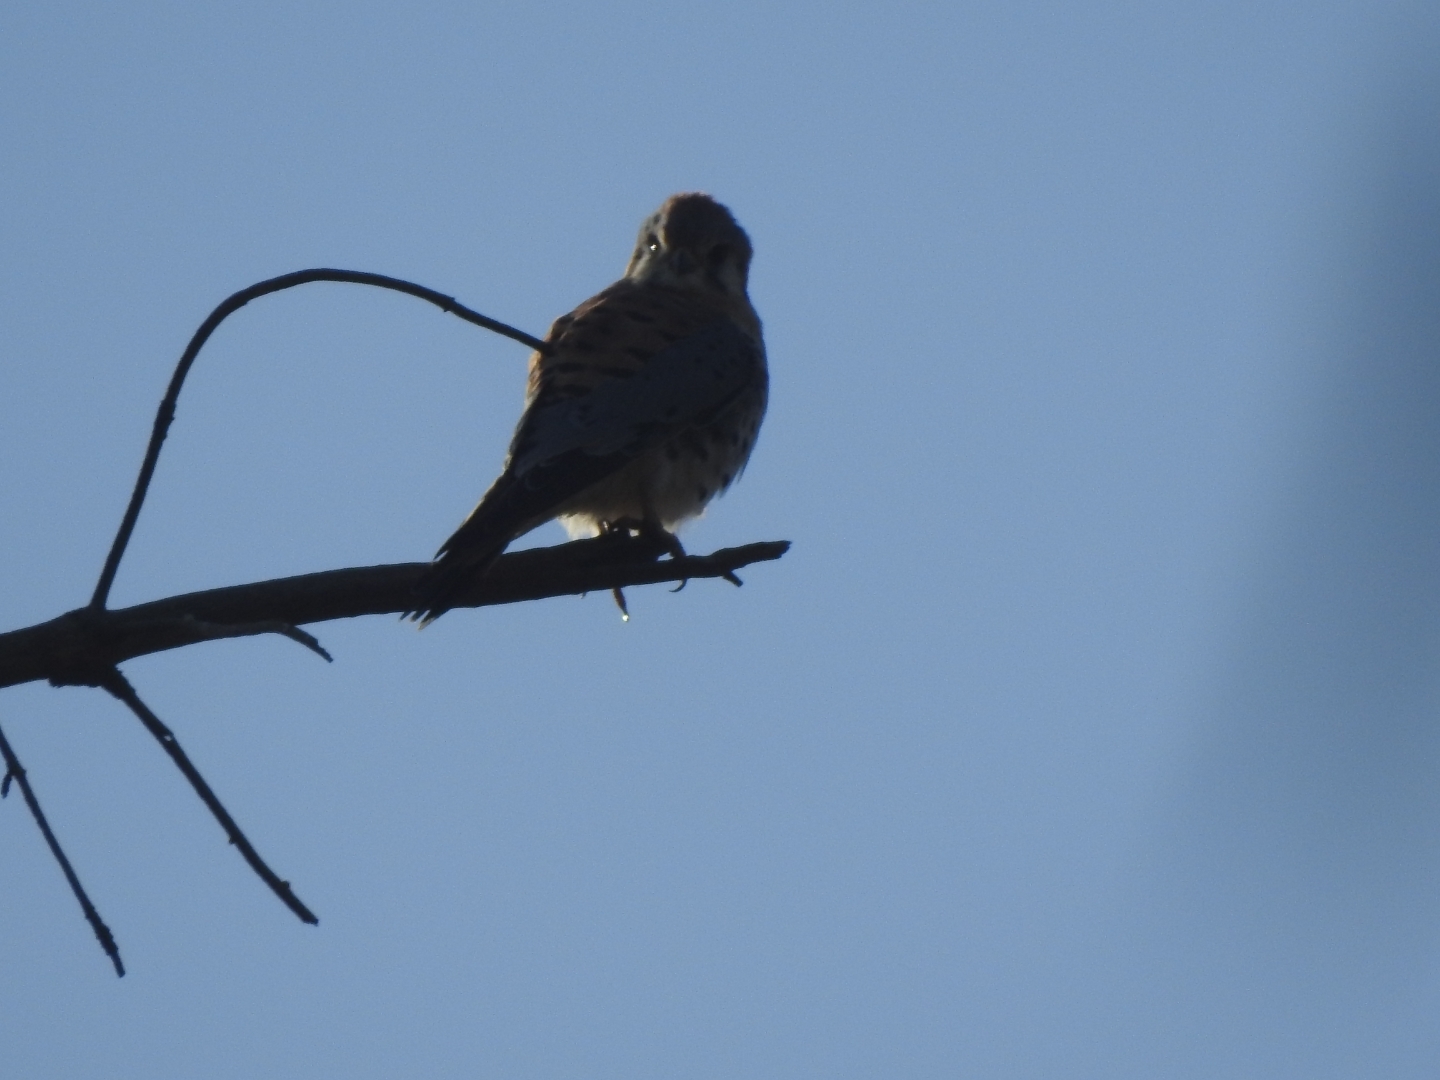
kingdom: Animalia
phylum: Chordata
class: Aves
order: Falconiformes
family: Falconidae
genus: Falco
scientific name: Falco sparverius
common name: American kestrel
